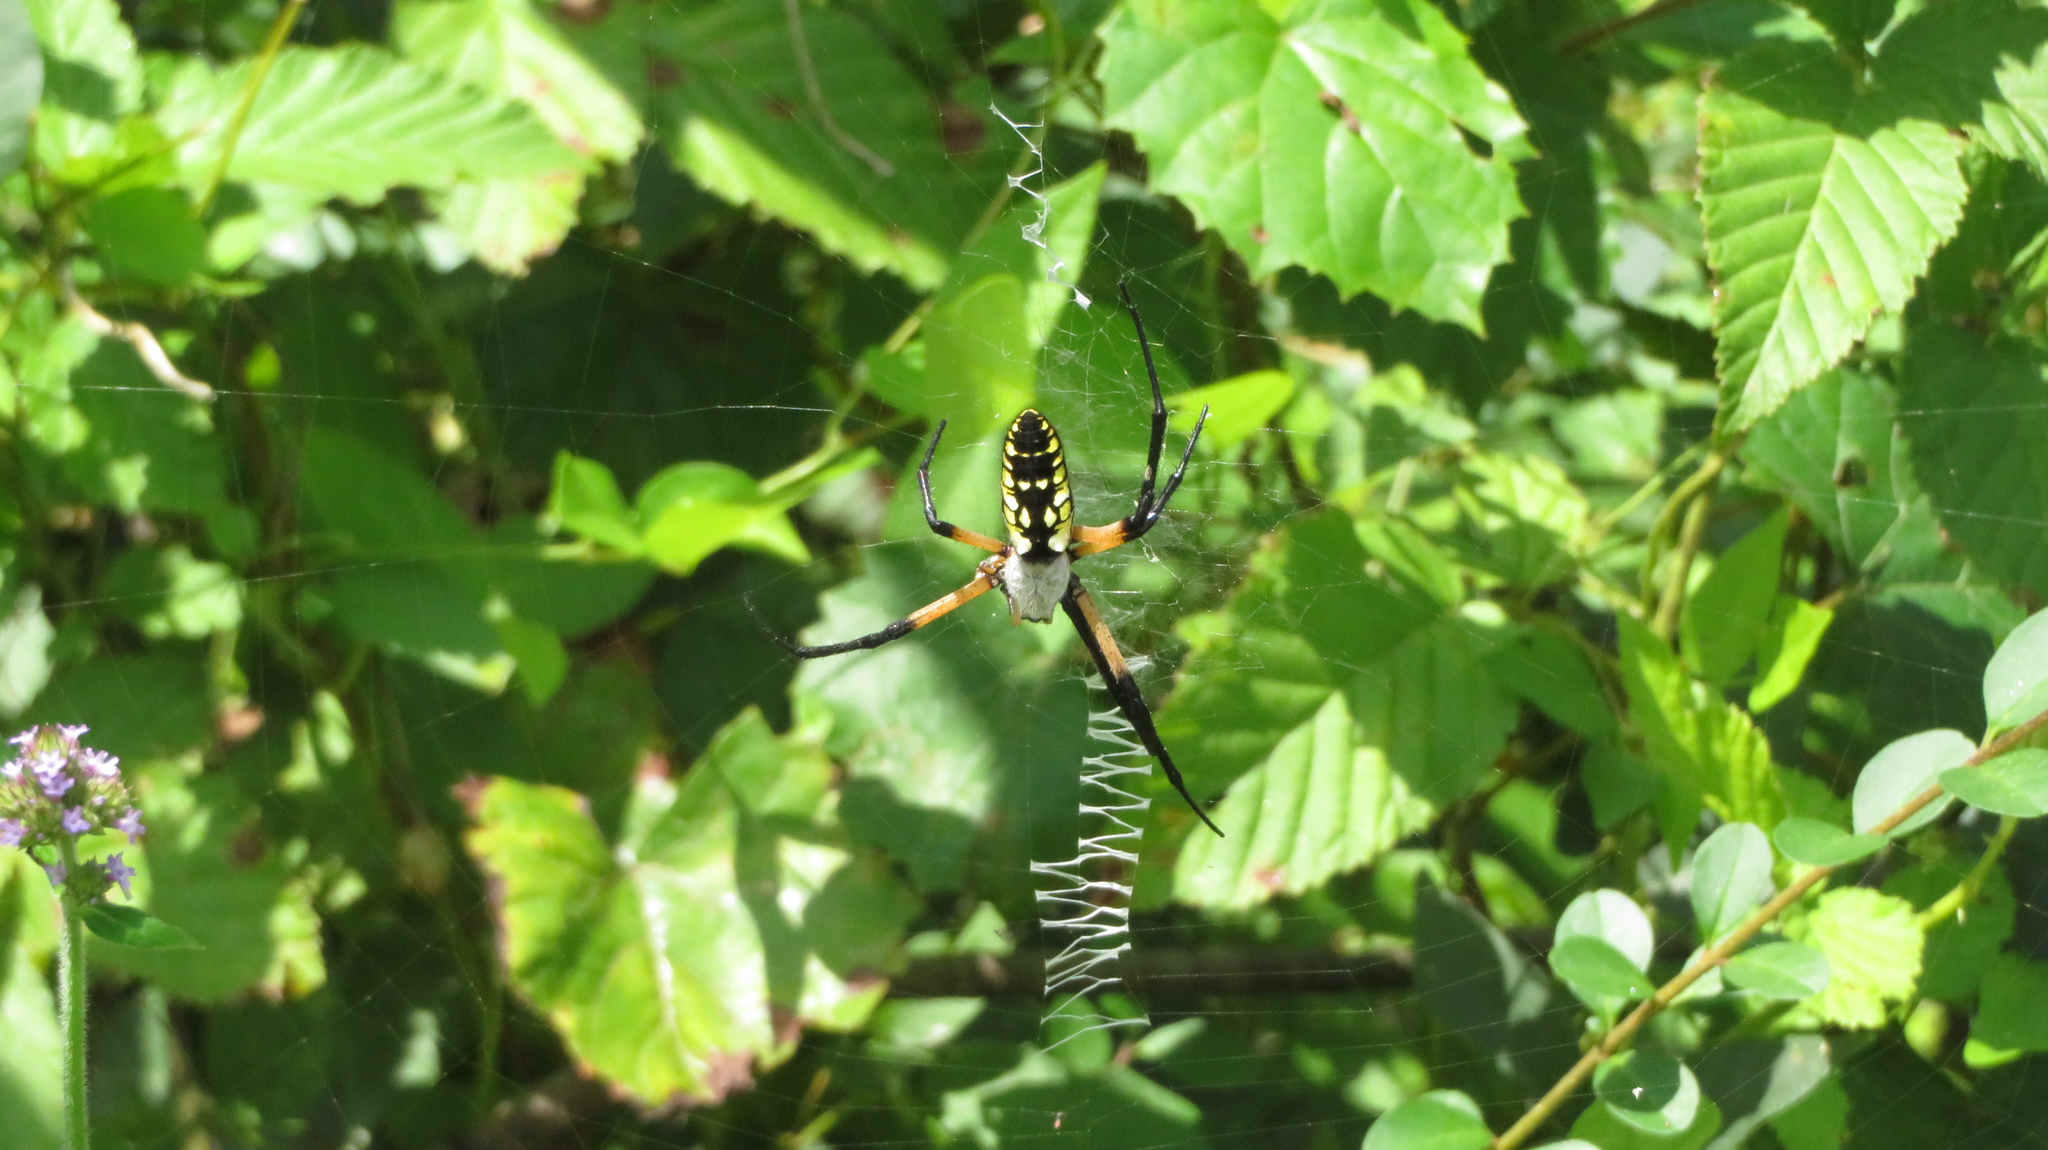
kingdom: Animalia
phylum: Arthropoda
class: Arachnida
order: Araneae
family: Araneidae
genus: Argiope
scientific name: Argiope aurantia
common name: Orb weavers
